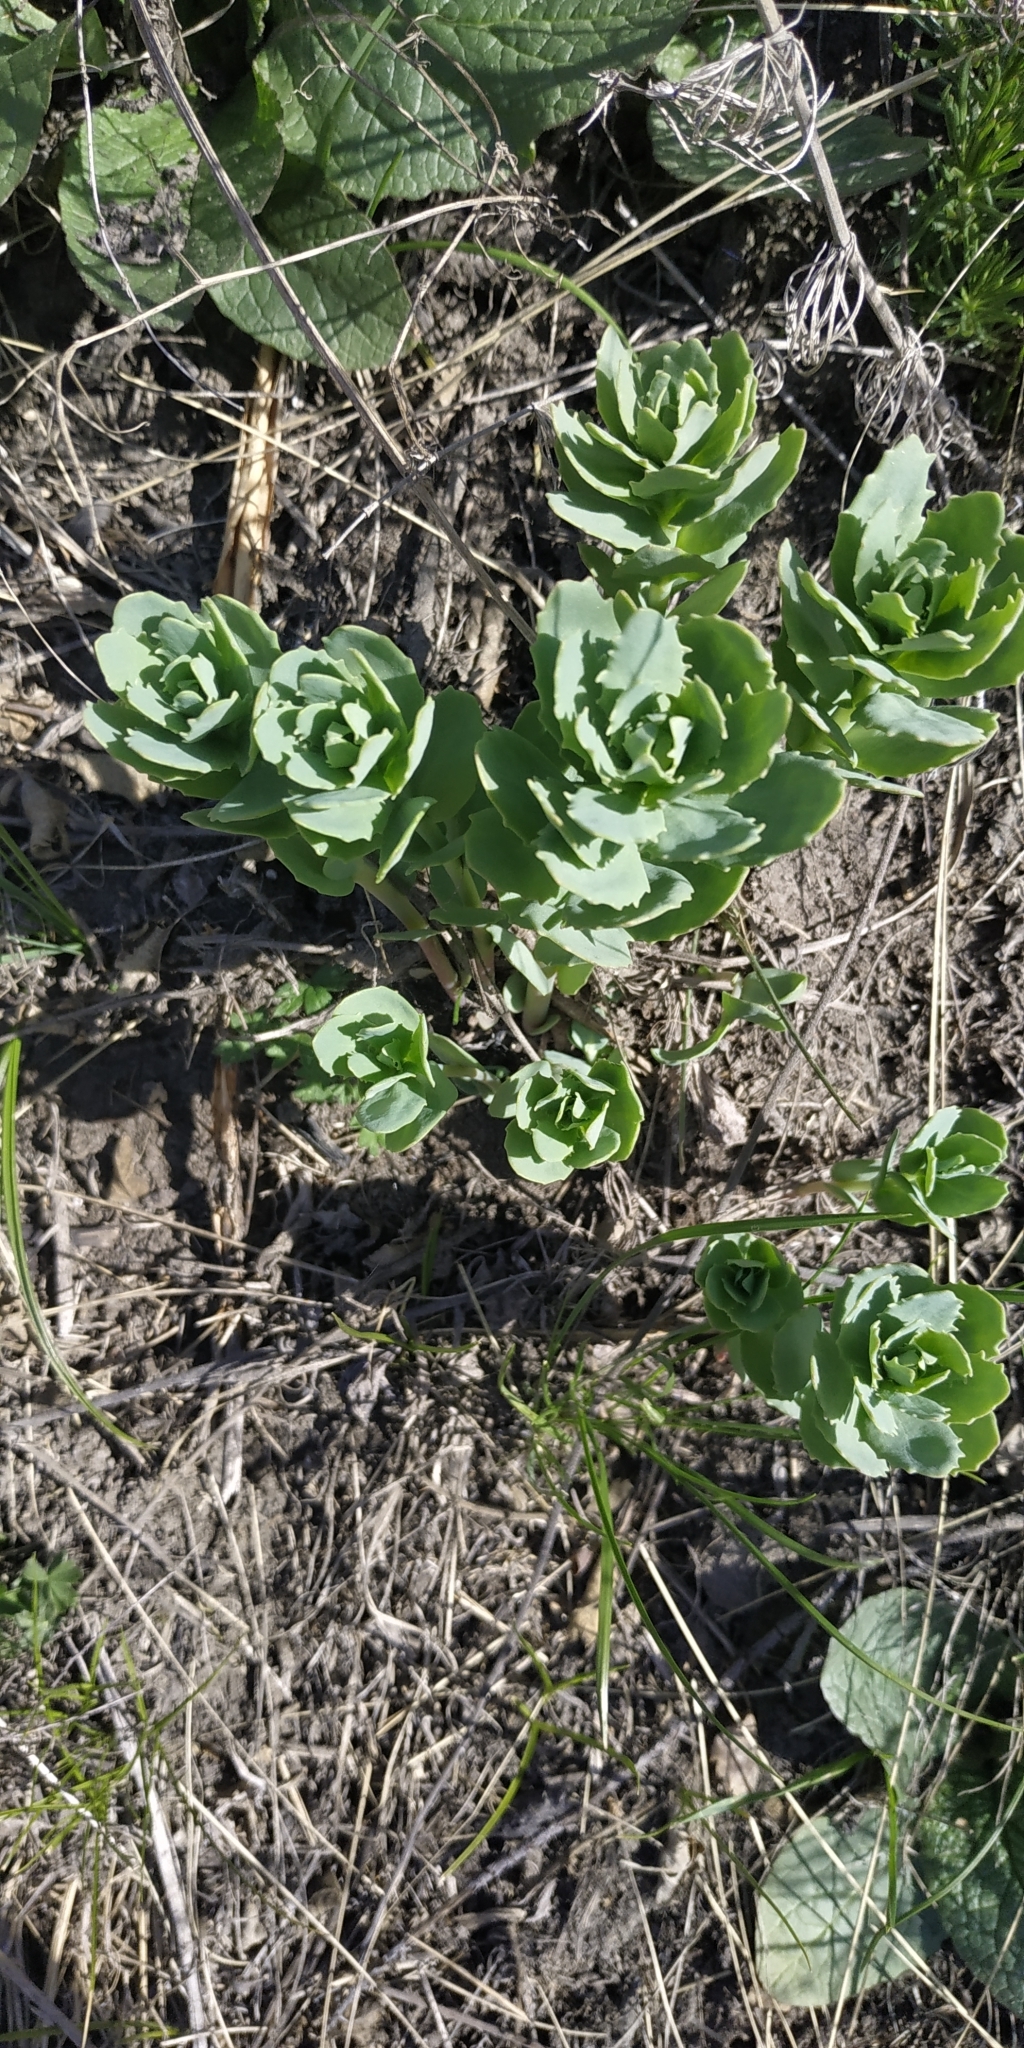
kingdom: Plantae
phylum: Tracheophyta
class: Magnoliopsida
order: Saxifragales
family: Crassulaceae
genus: Hylotelephium
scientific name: Hylotelephium telephium
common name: Live-forever
